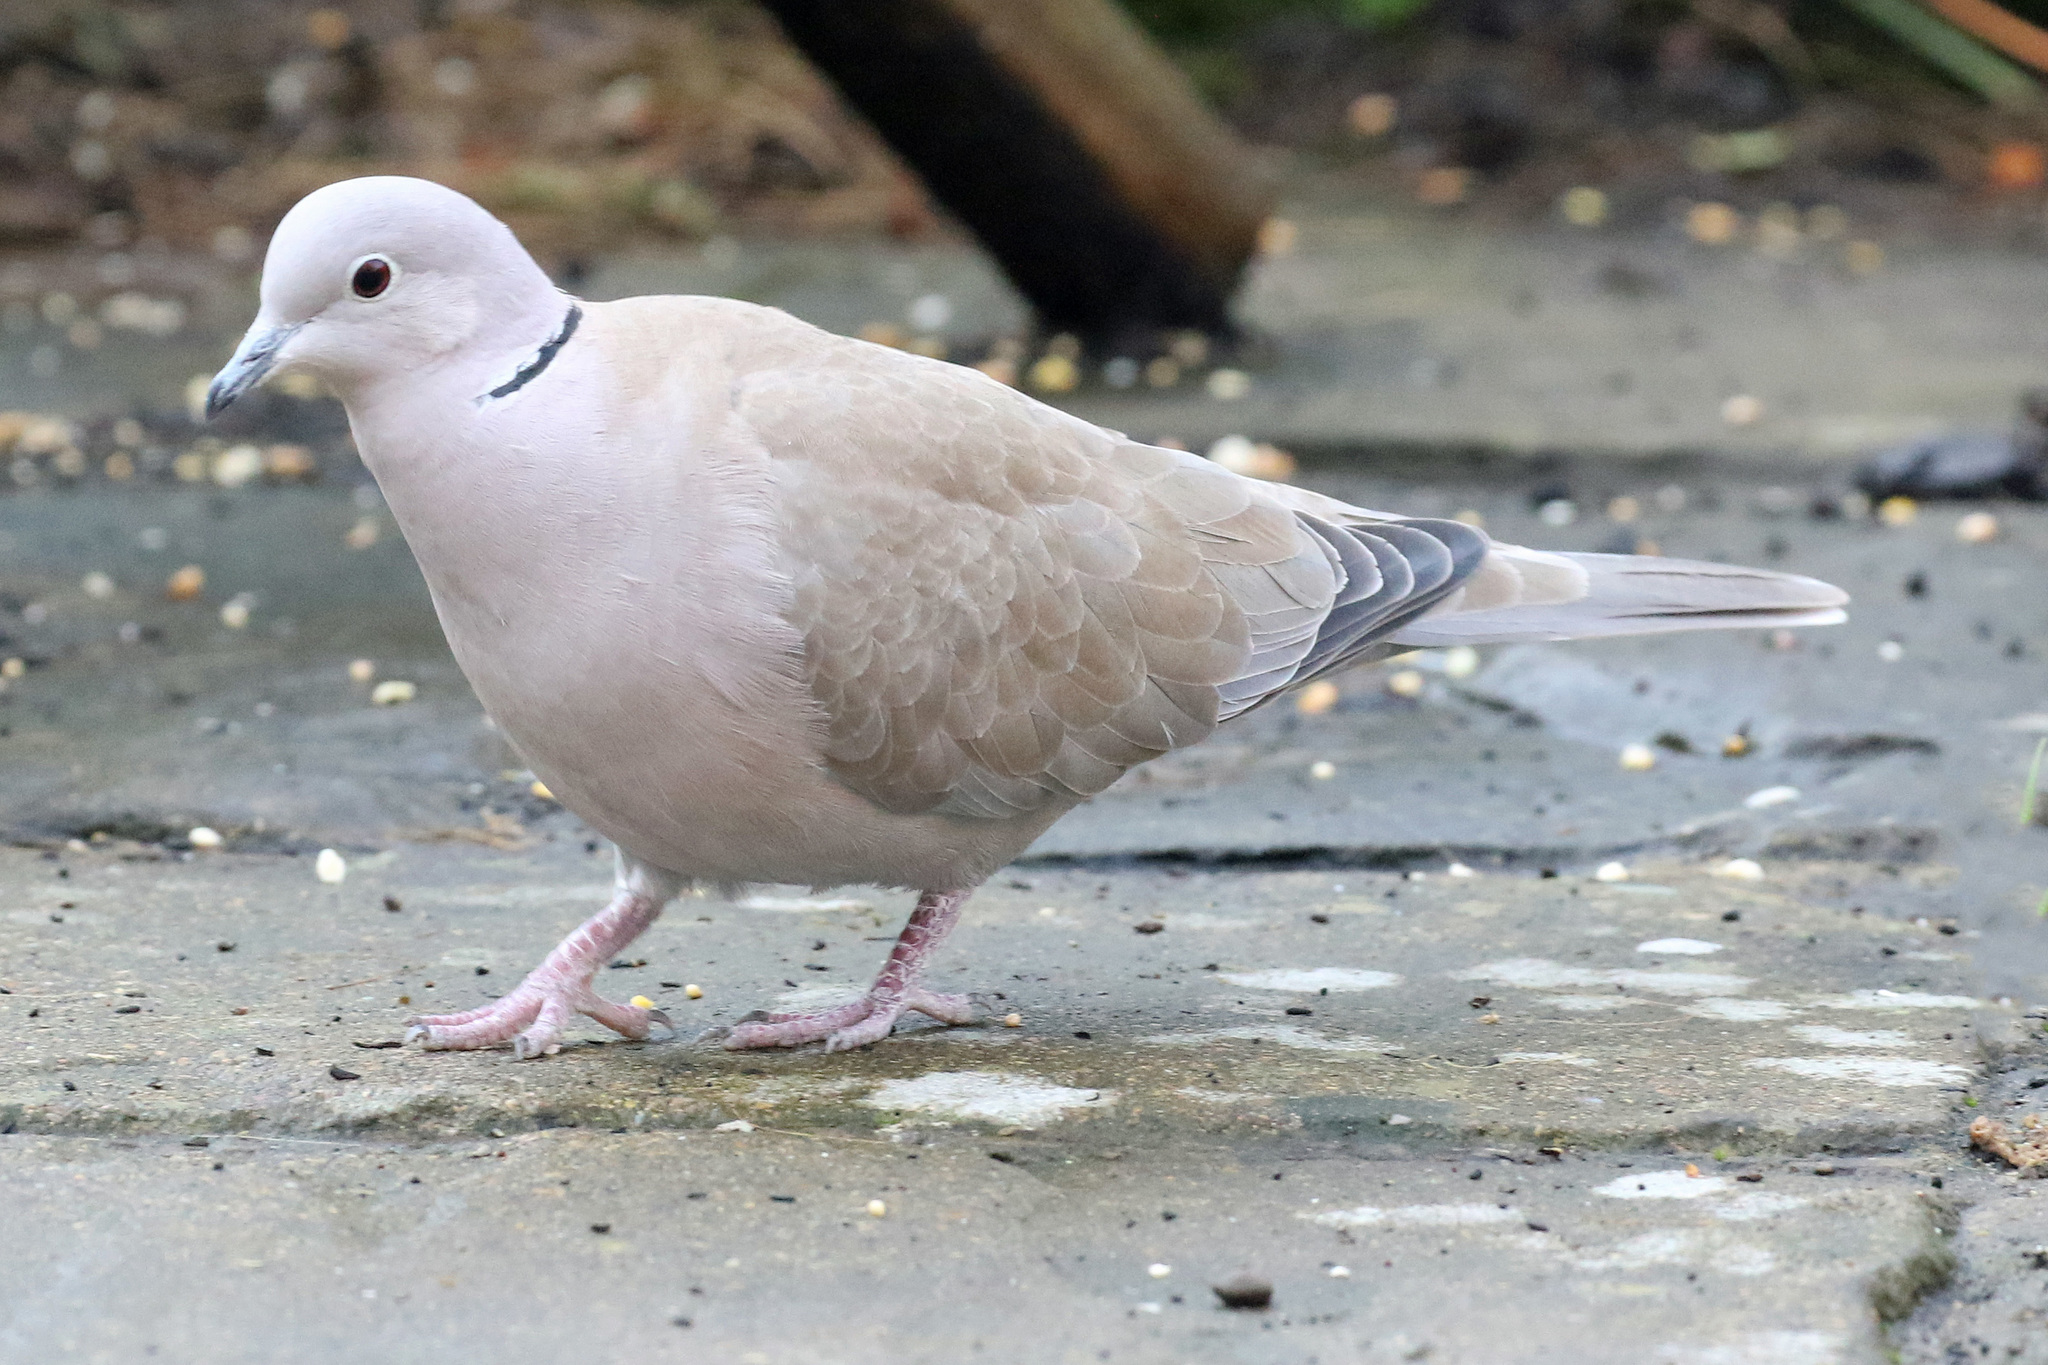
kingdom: Animalia
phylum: Chordata
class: Aves
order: Columbiformes
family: Columbidae
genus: Streptopelia
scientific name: Streptopelia decaocto
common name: Eurasian collared dove
